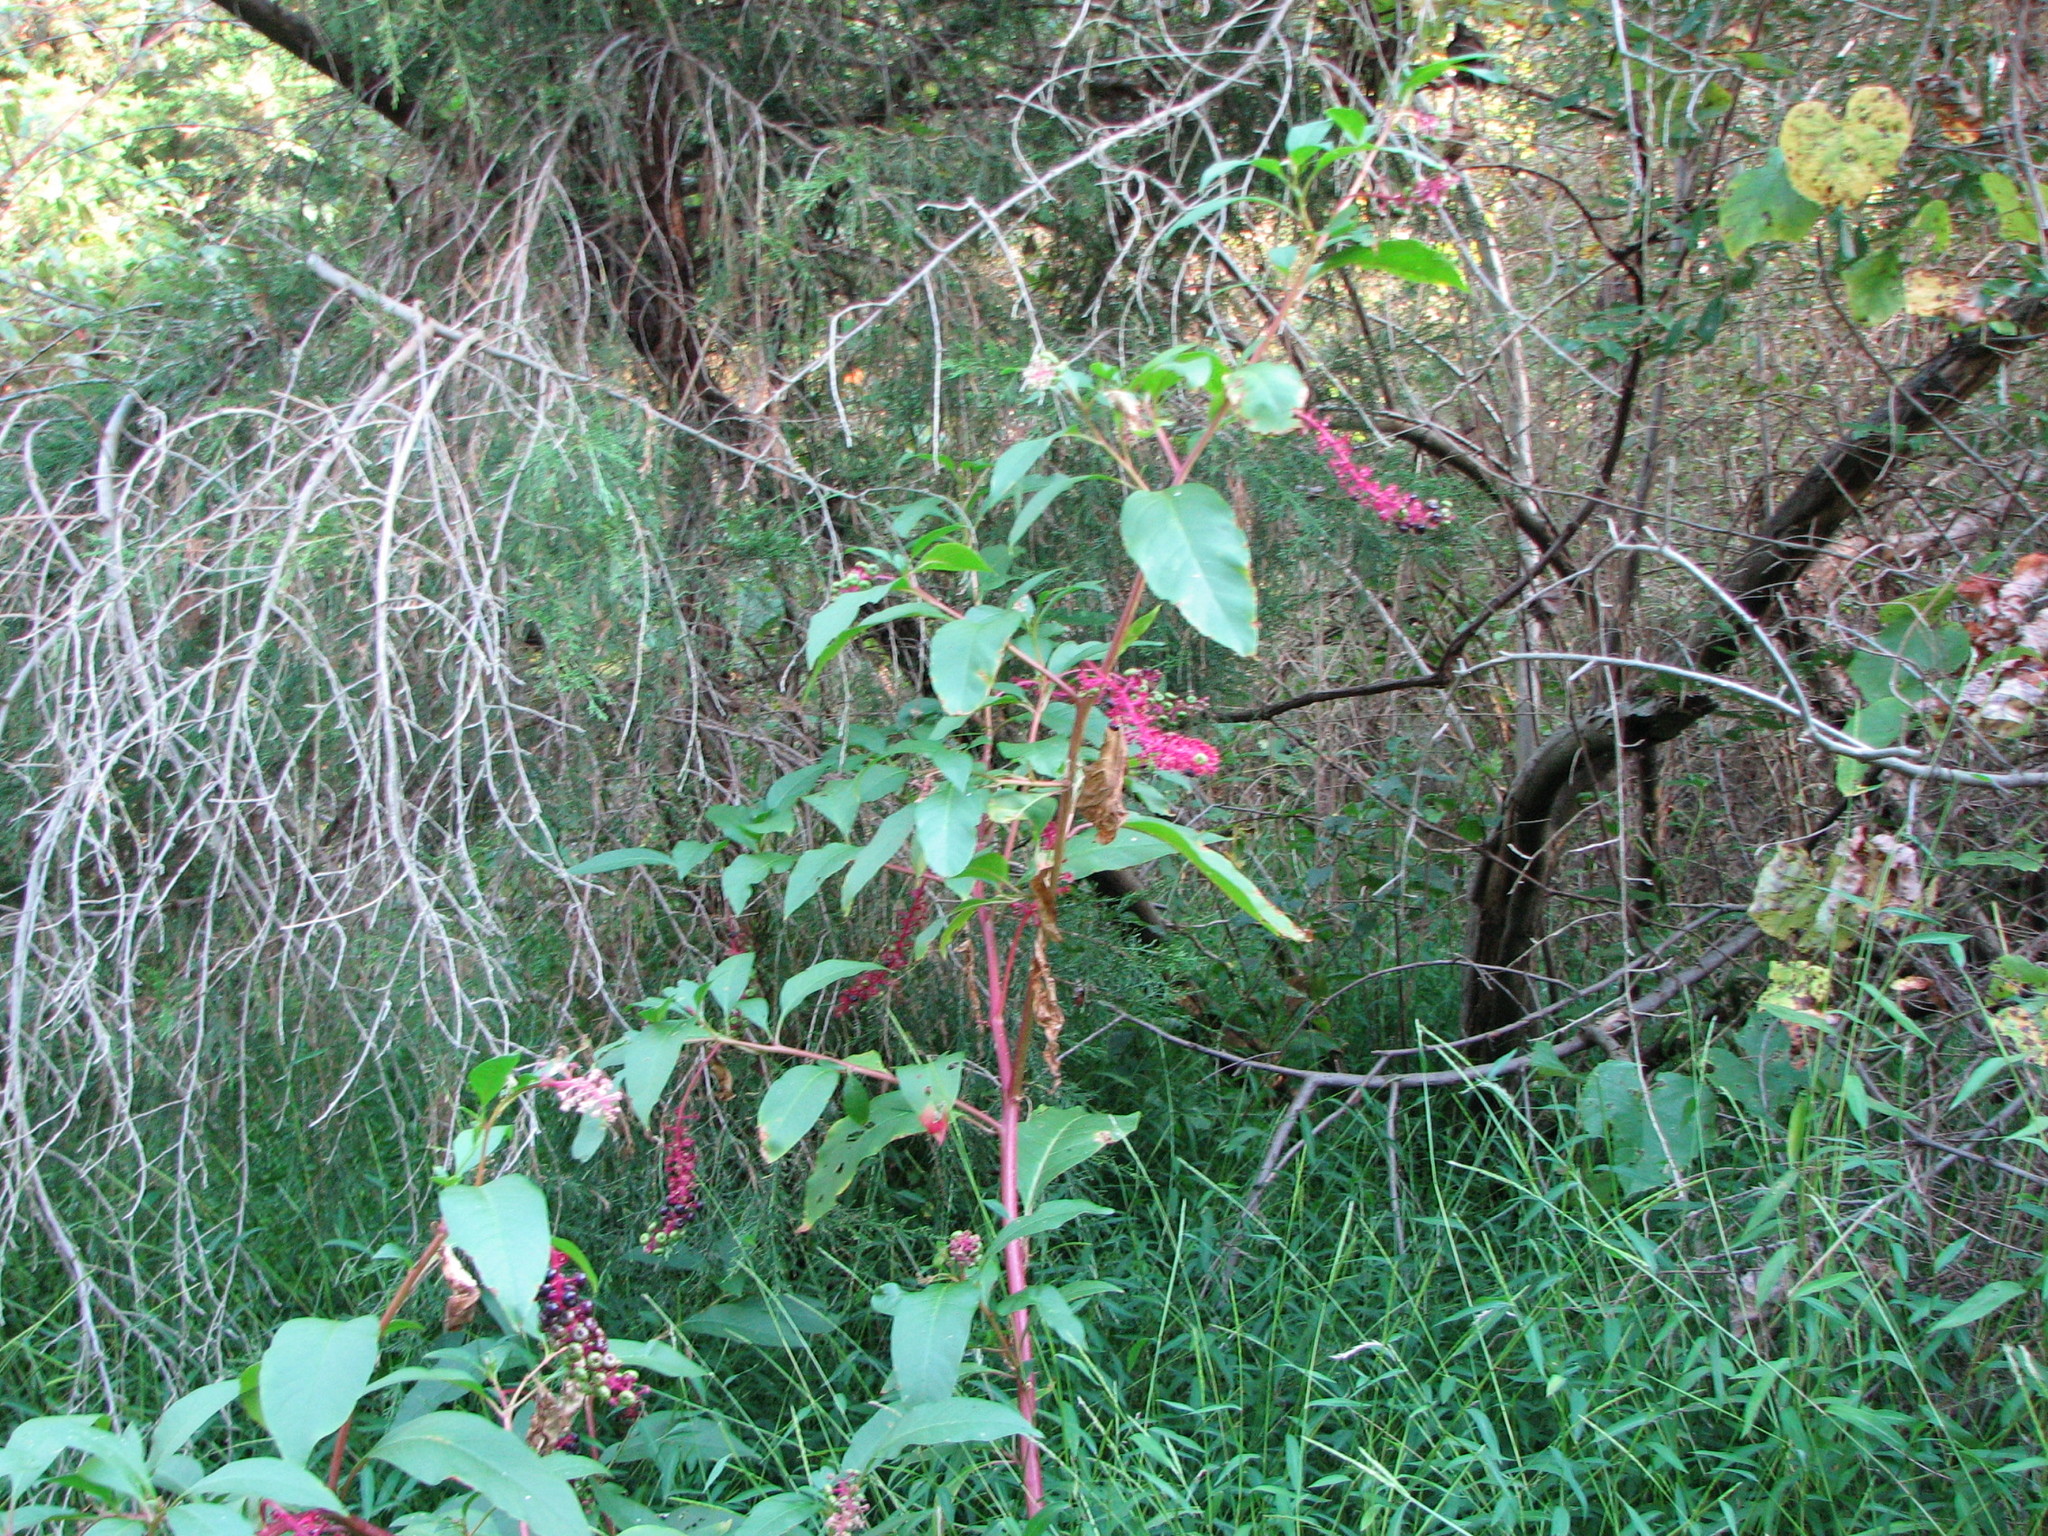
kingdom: Plantae
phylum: Tracheophyta
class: Magnoliopsida
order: Caryophyllales
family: Phytolaccaceae
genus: Phytolacca
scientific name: Phytolacca americana
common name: American pokeweed
